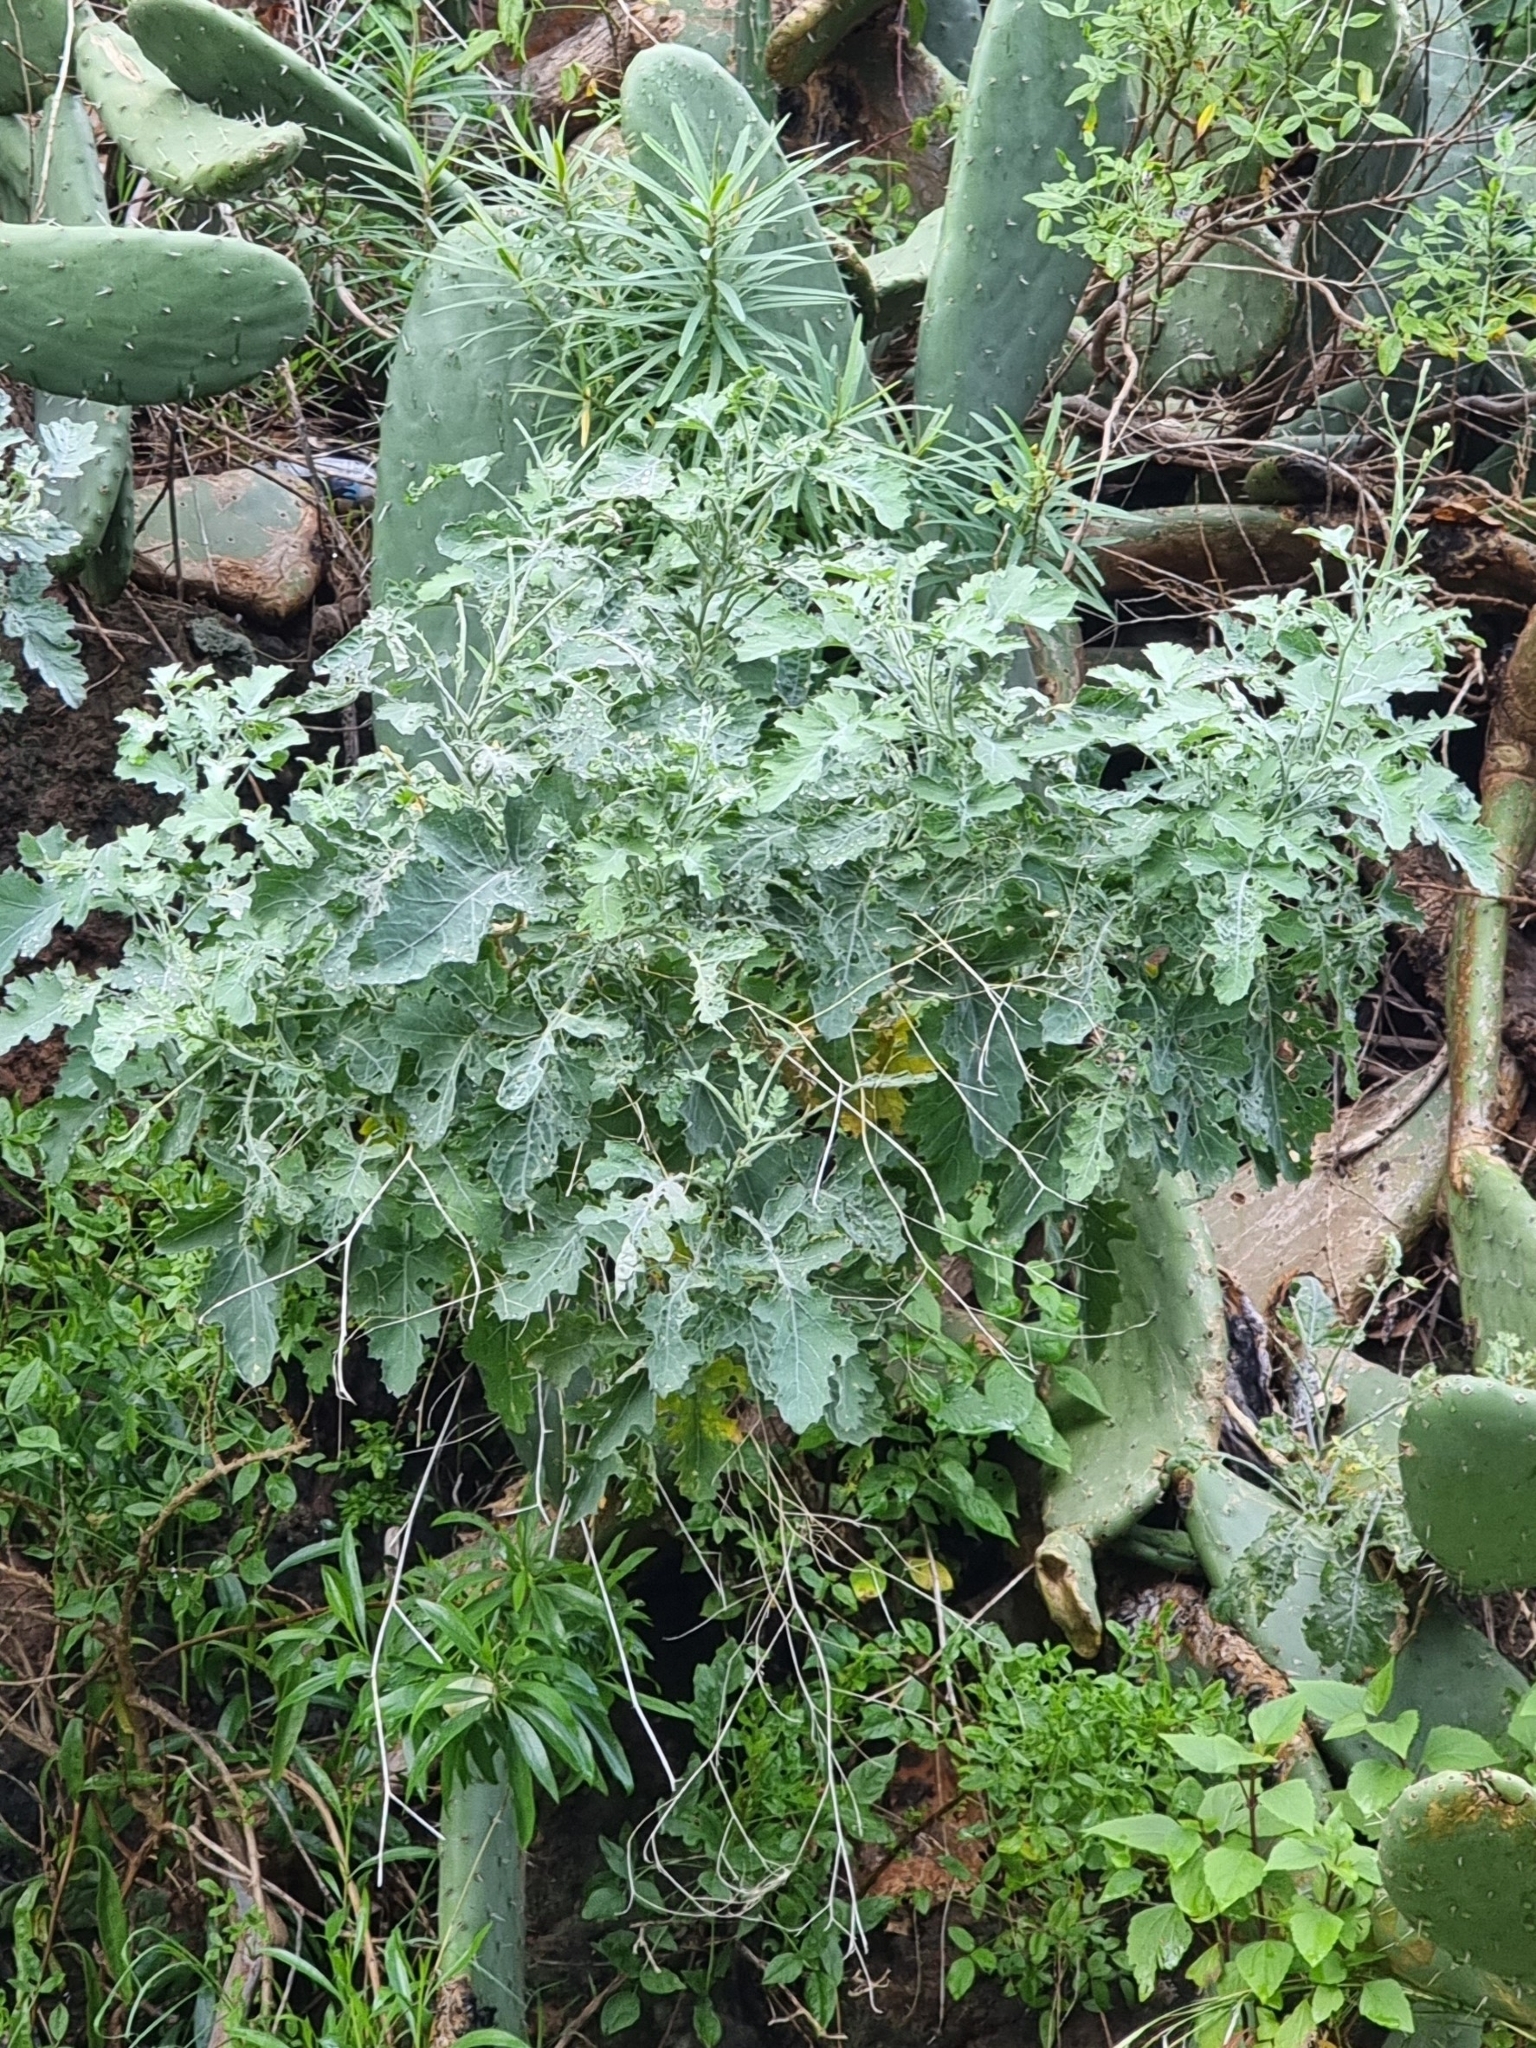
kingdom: Plantae
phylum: Tracheophyta
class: Magnoliopsida
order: Brassicales
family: Brassicaceae
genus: Crambe
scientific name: Crambe fruticosa
